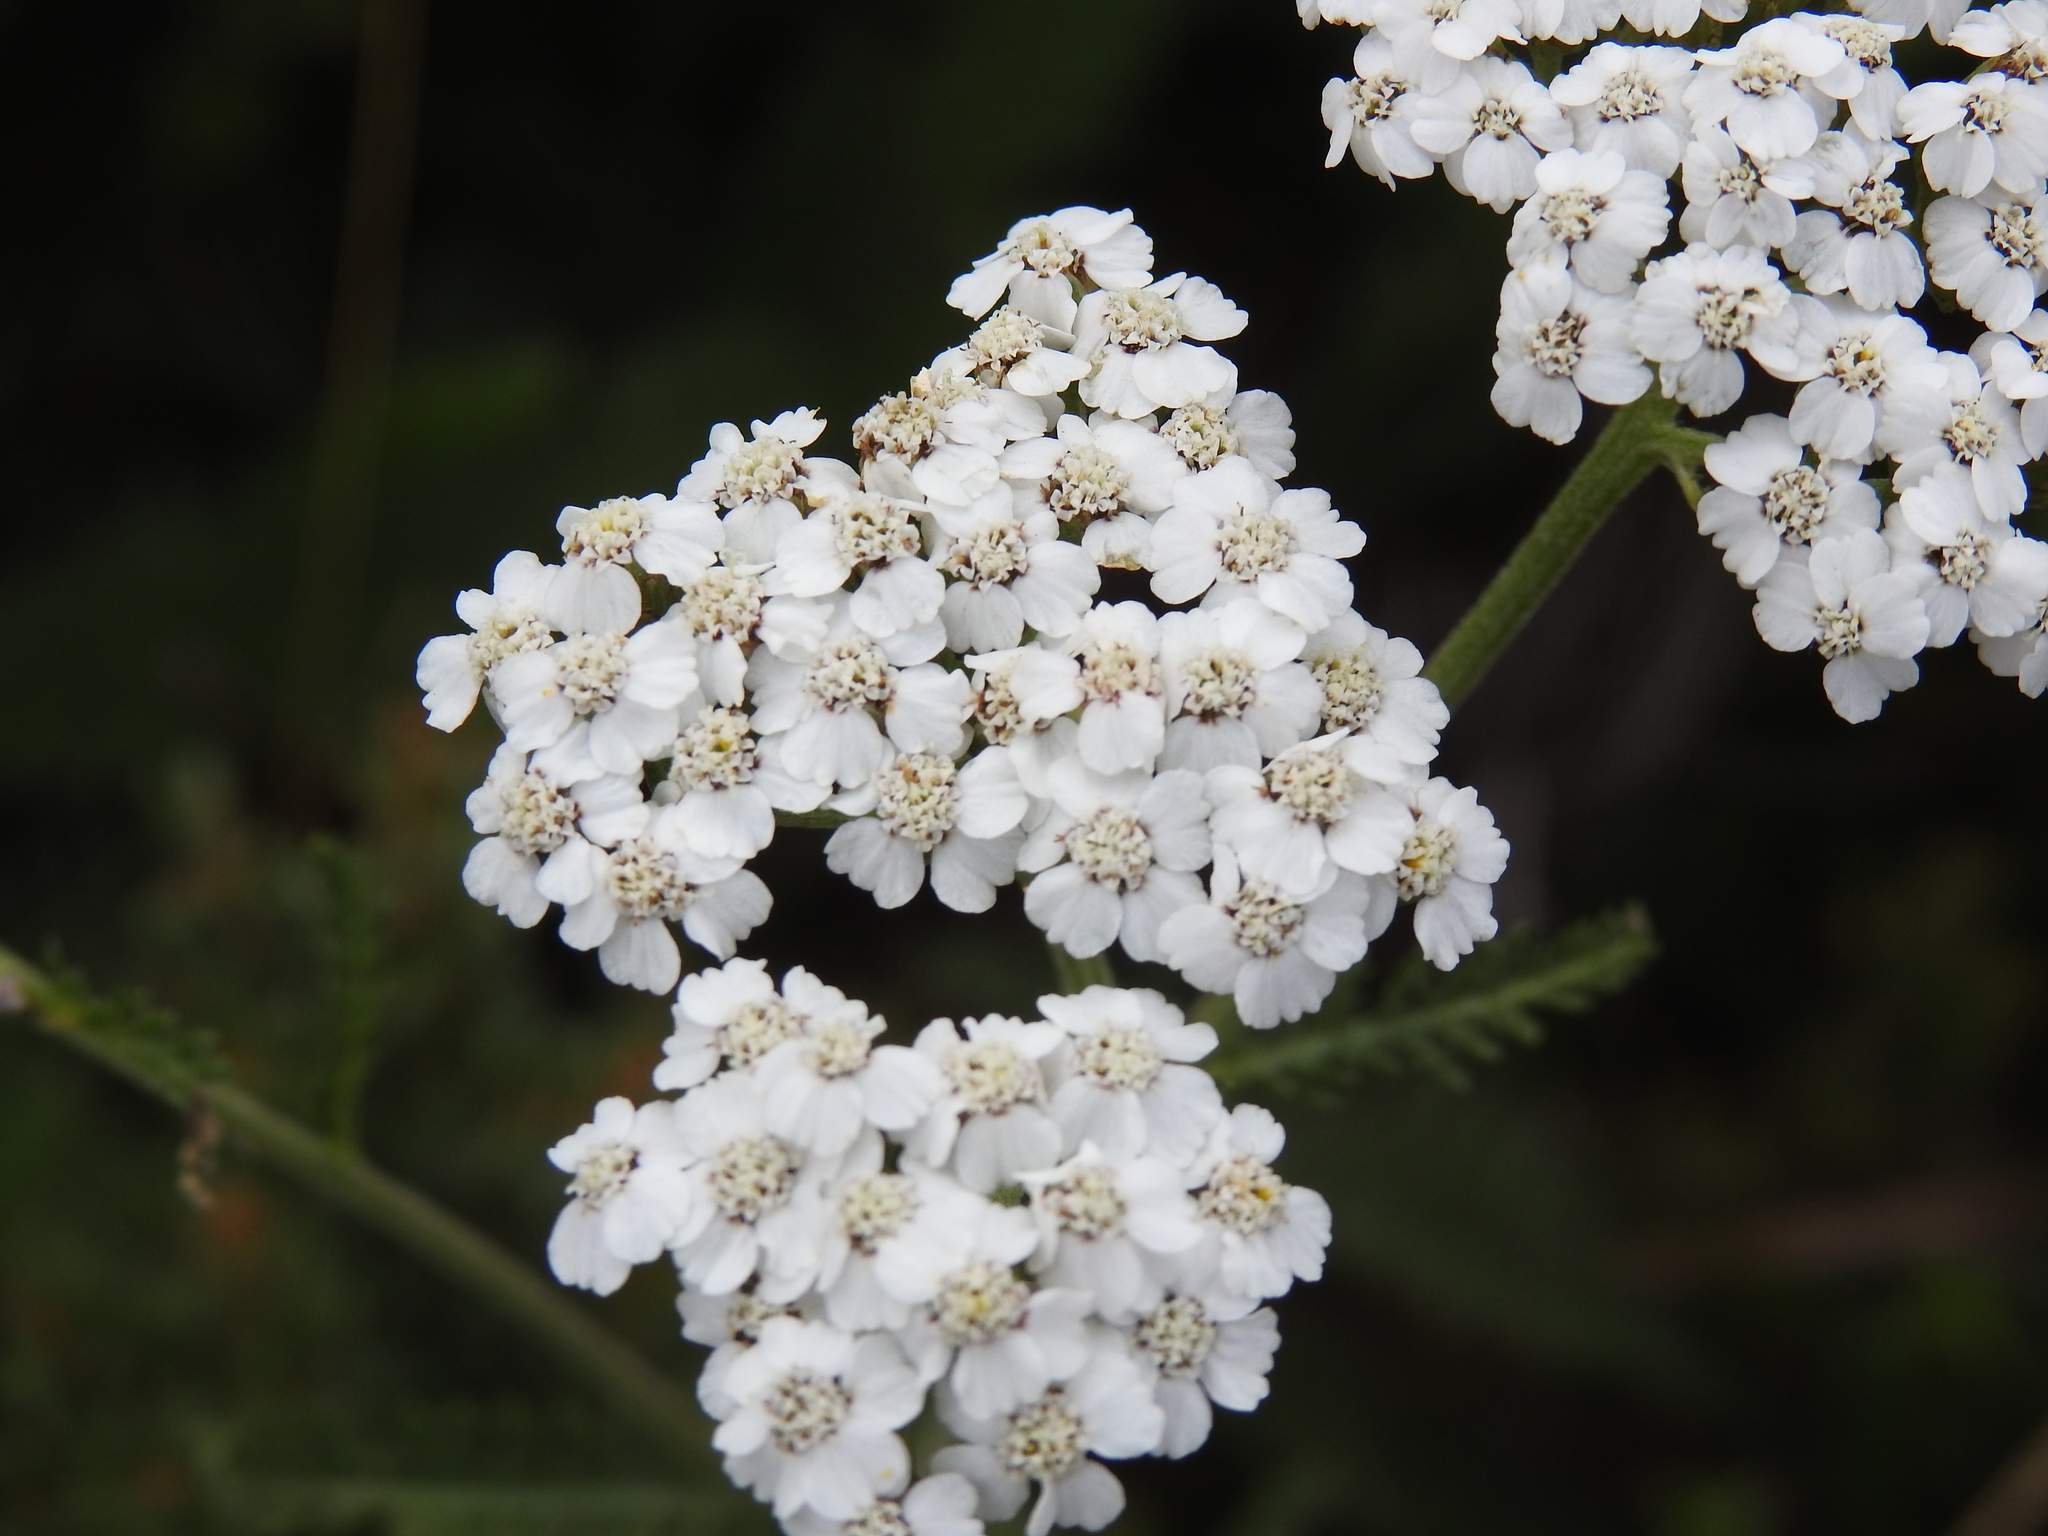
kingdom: Plantae
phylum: Tracheophyta
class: Magnoliopsida
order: Asterales
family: Asteraceae
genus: Achillea
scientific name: Achillea millefolium
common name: Yarrow
